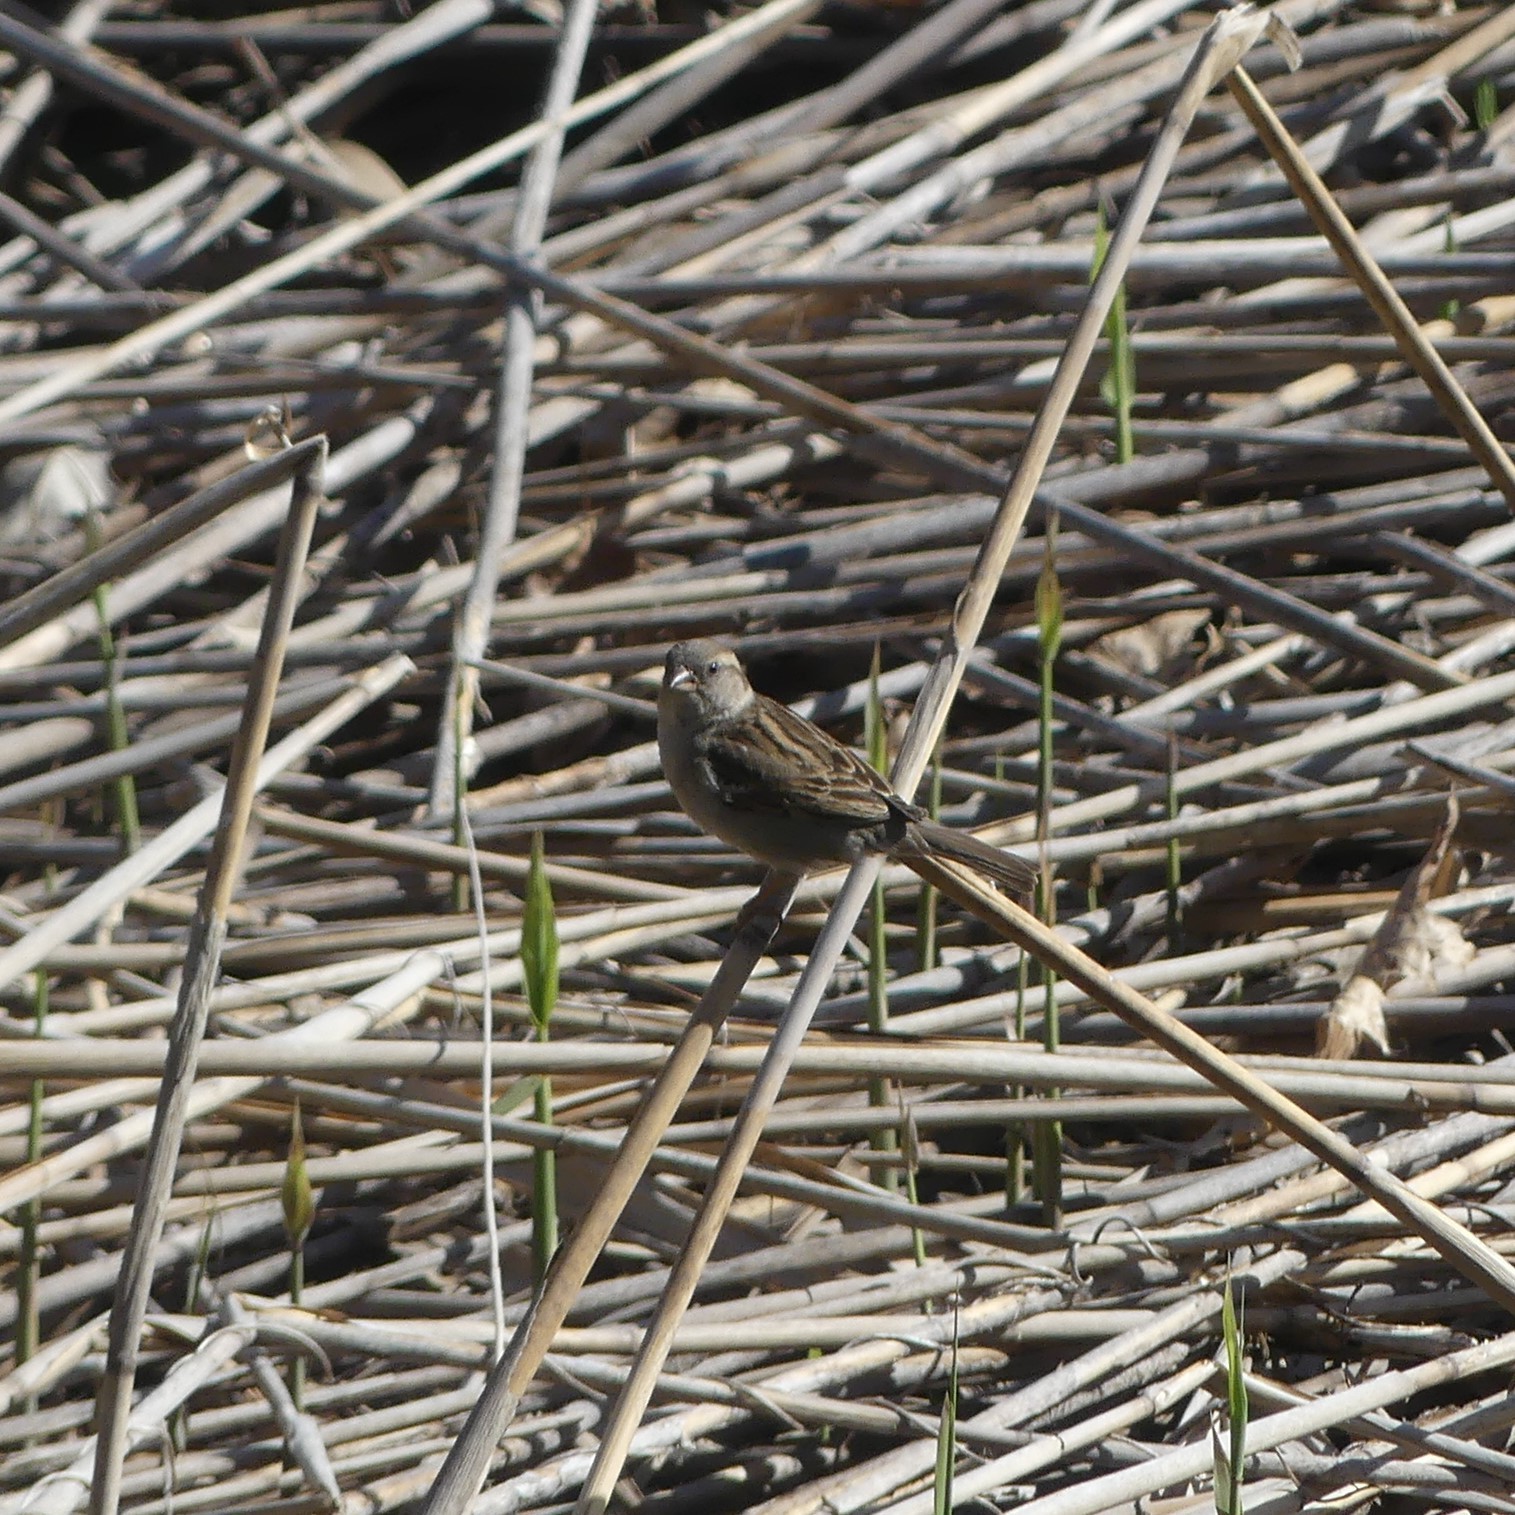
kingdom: Animalia
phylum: Chordata
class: Aves
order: Passeriformes
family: Passeridae
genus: Passer
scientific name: Passer domesticus
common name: House sparrow
